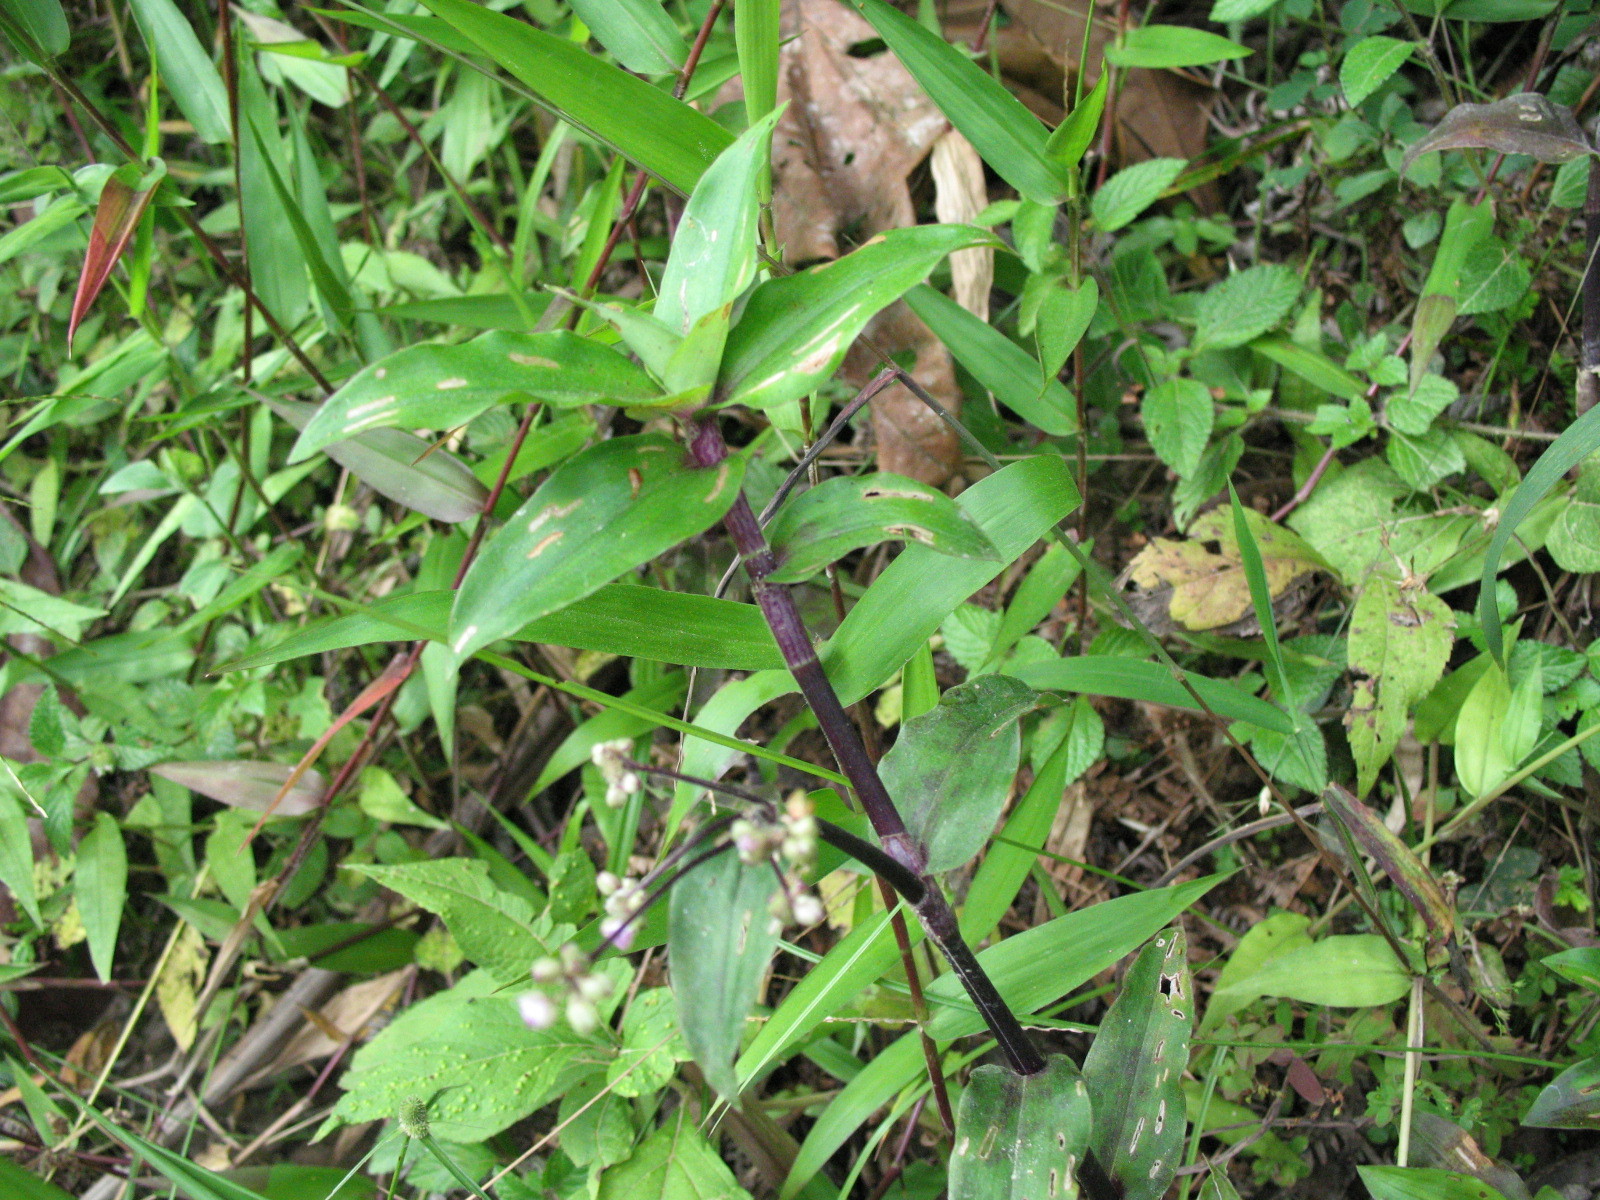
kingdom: Plantae
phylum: Tracheophyta
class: Liliopsida
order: Commelinales
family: Commelinaceae
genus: Callisia
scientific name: Callisia serrulata
